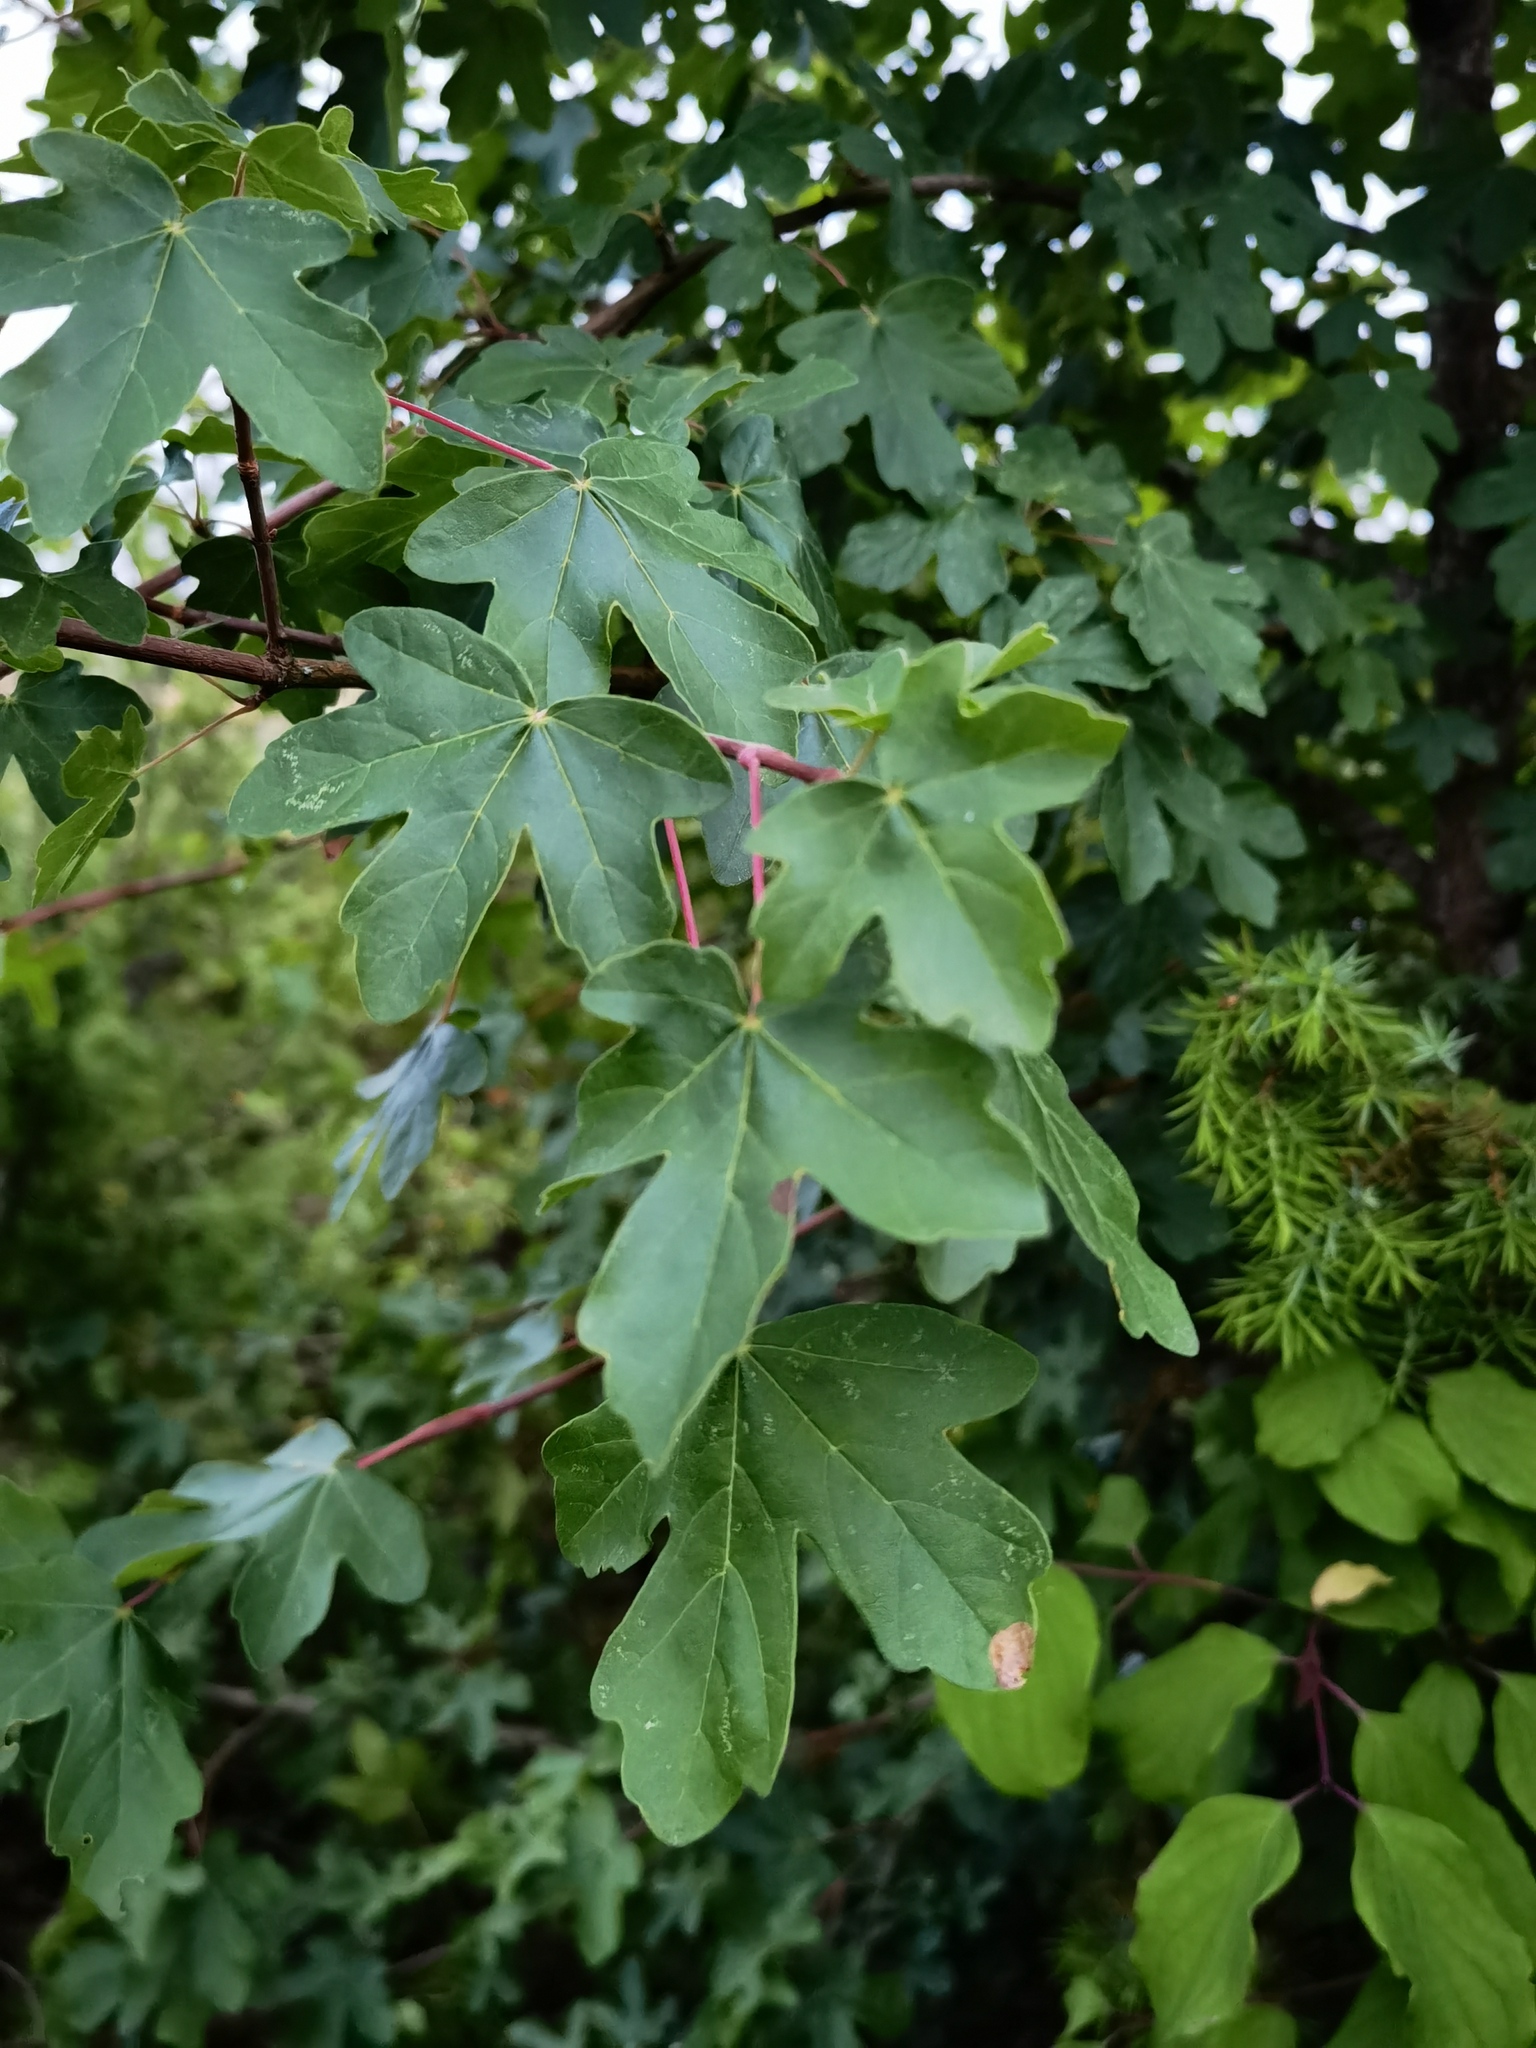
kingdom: Plantae
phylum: Tracheophyta
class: Magnoliopsida
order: Sapindales
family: Sapindaceae
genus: Acer
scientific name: Acer campestre
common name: Field maple
